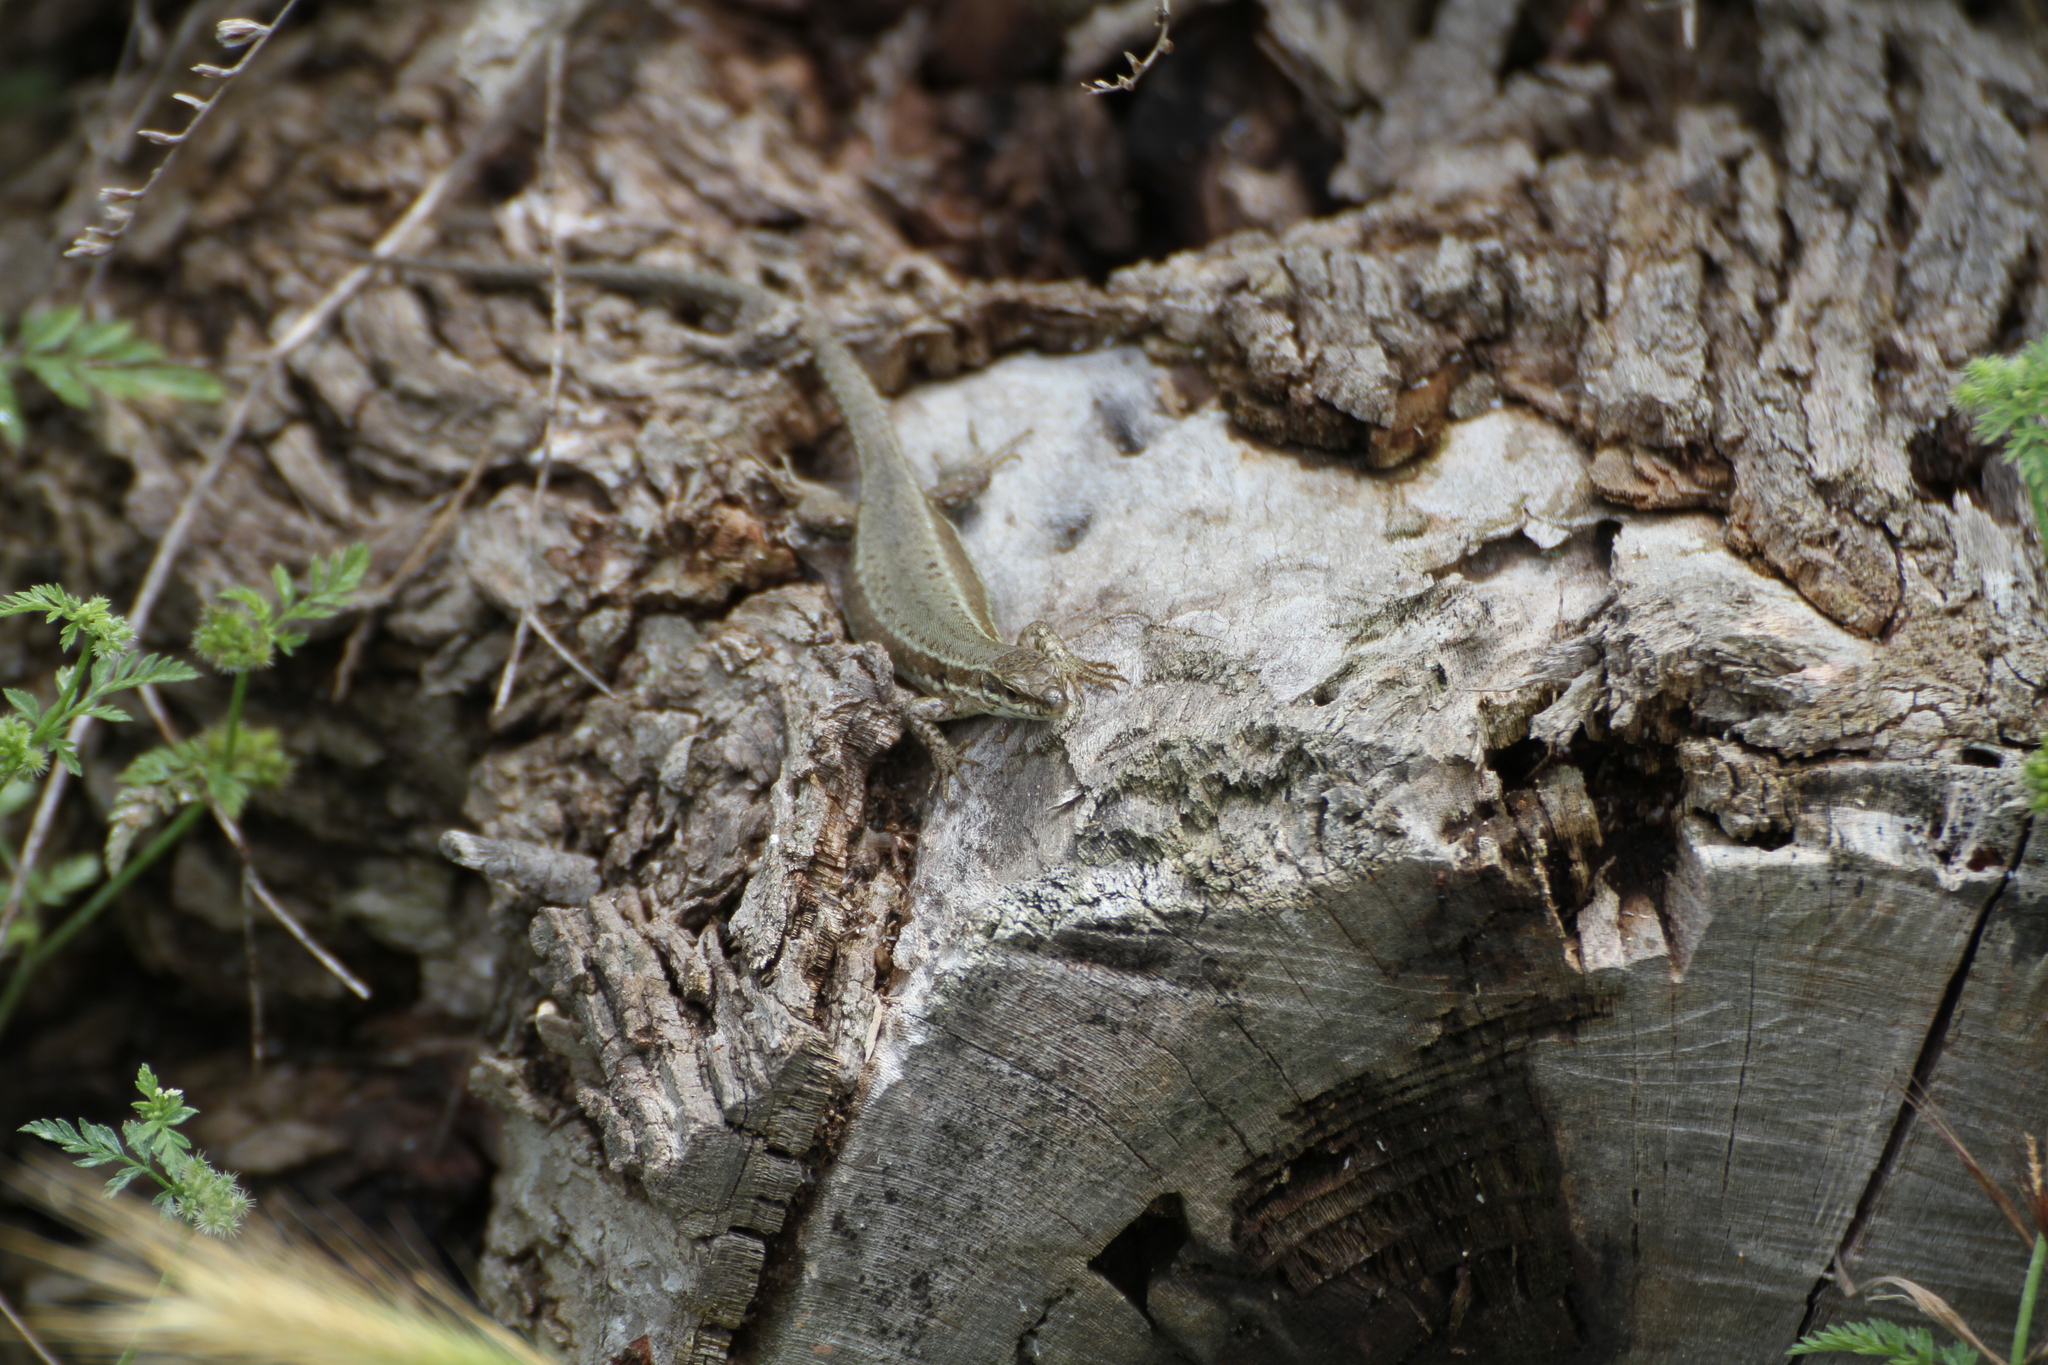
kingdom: Animalia
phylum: Chordata
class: Squamata
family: Lacertidae
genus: Podarcis
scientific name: Podarcis muralis
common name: Common wall lizard
